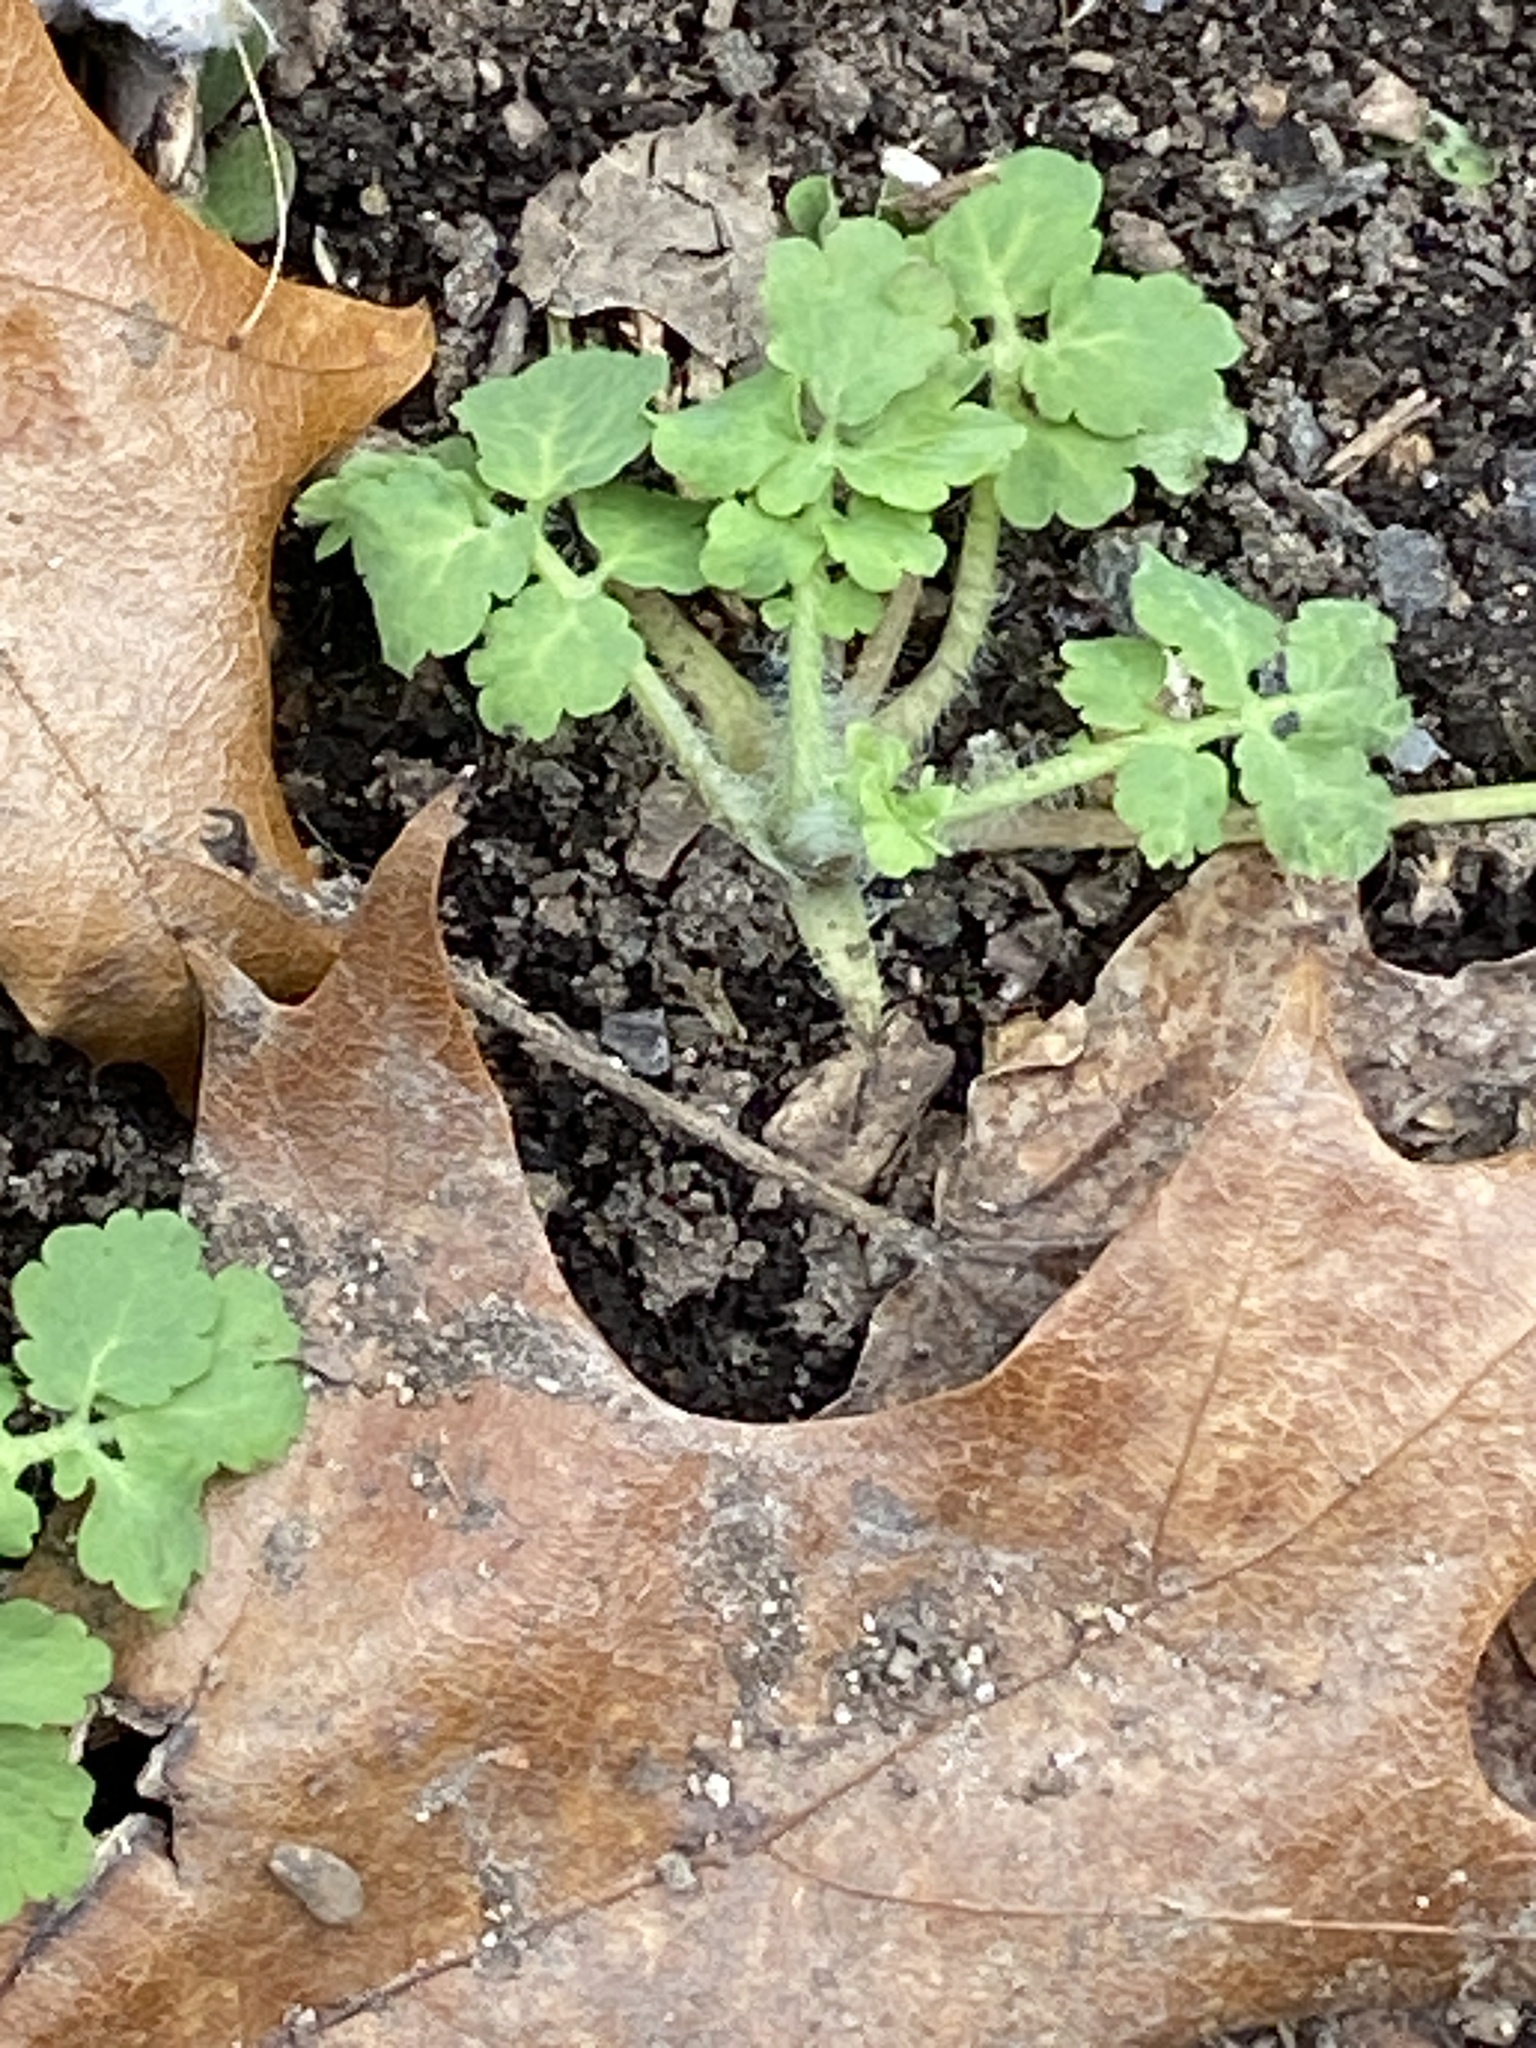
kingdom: Plantae
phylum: Tracheophyta
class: Magnoliopsida
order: Ranunculales
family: Papaveraceae
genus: Chelidonium
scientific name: Chelidonium majus
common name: Greater celandine
